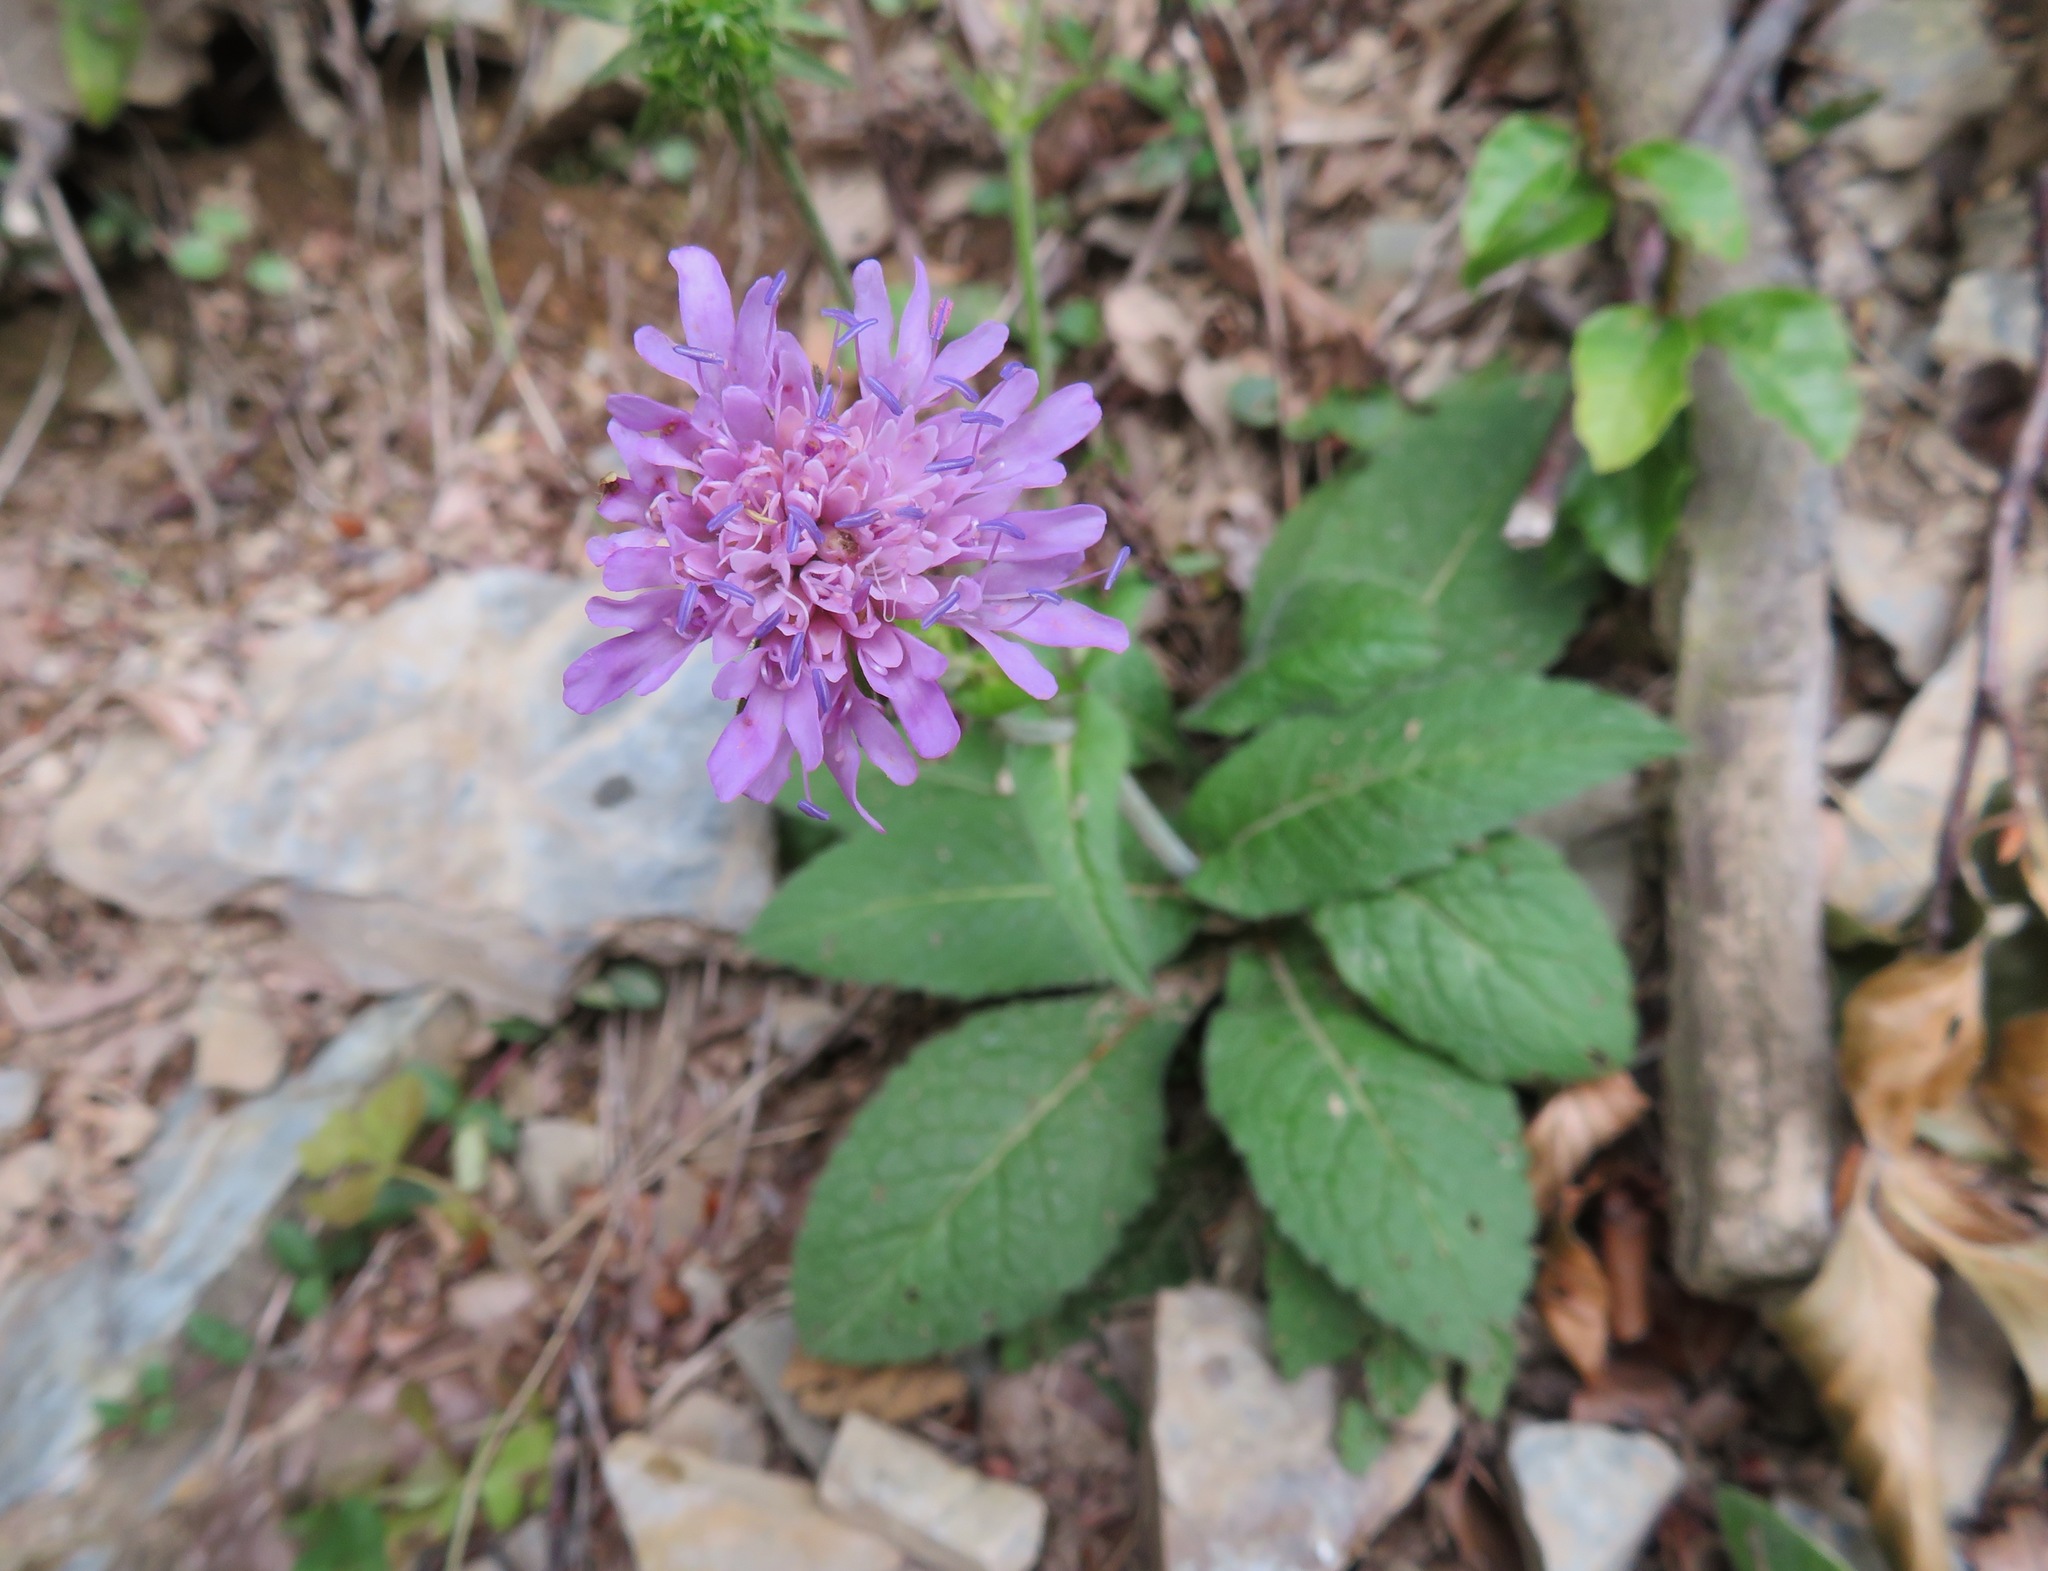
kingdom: Plantae
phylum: Tracheophyta
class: Magnoliopsida
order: Dipsacales
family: Caprifoliaceae
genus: Knautia
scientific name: Knautia dipsacifolia
